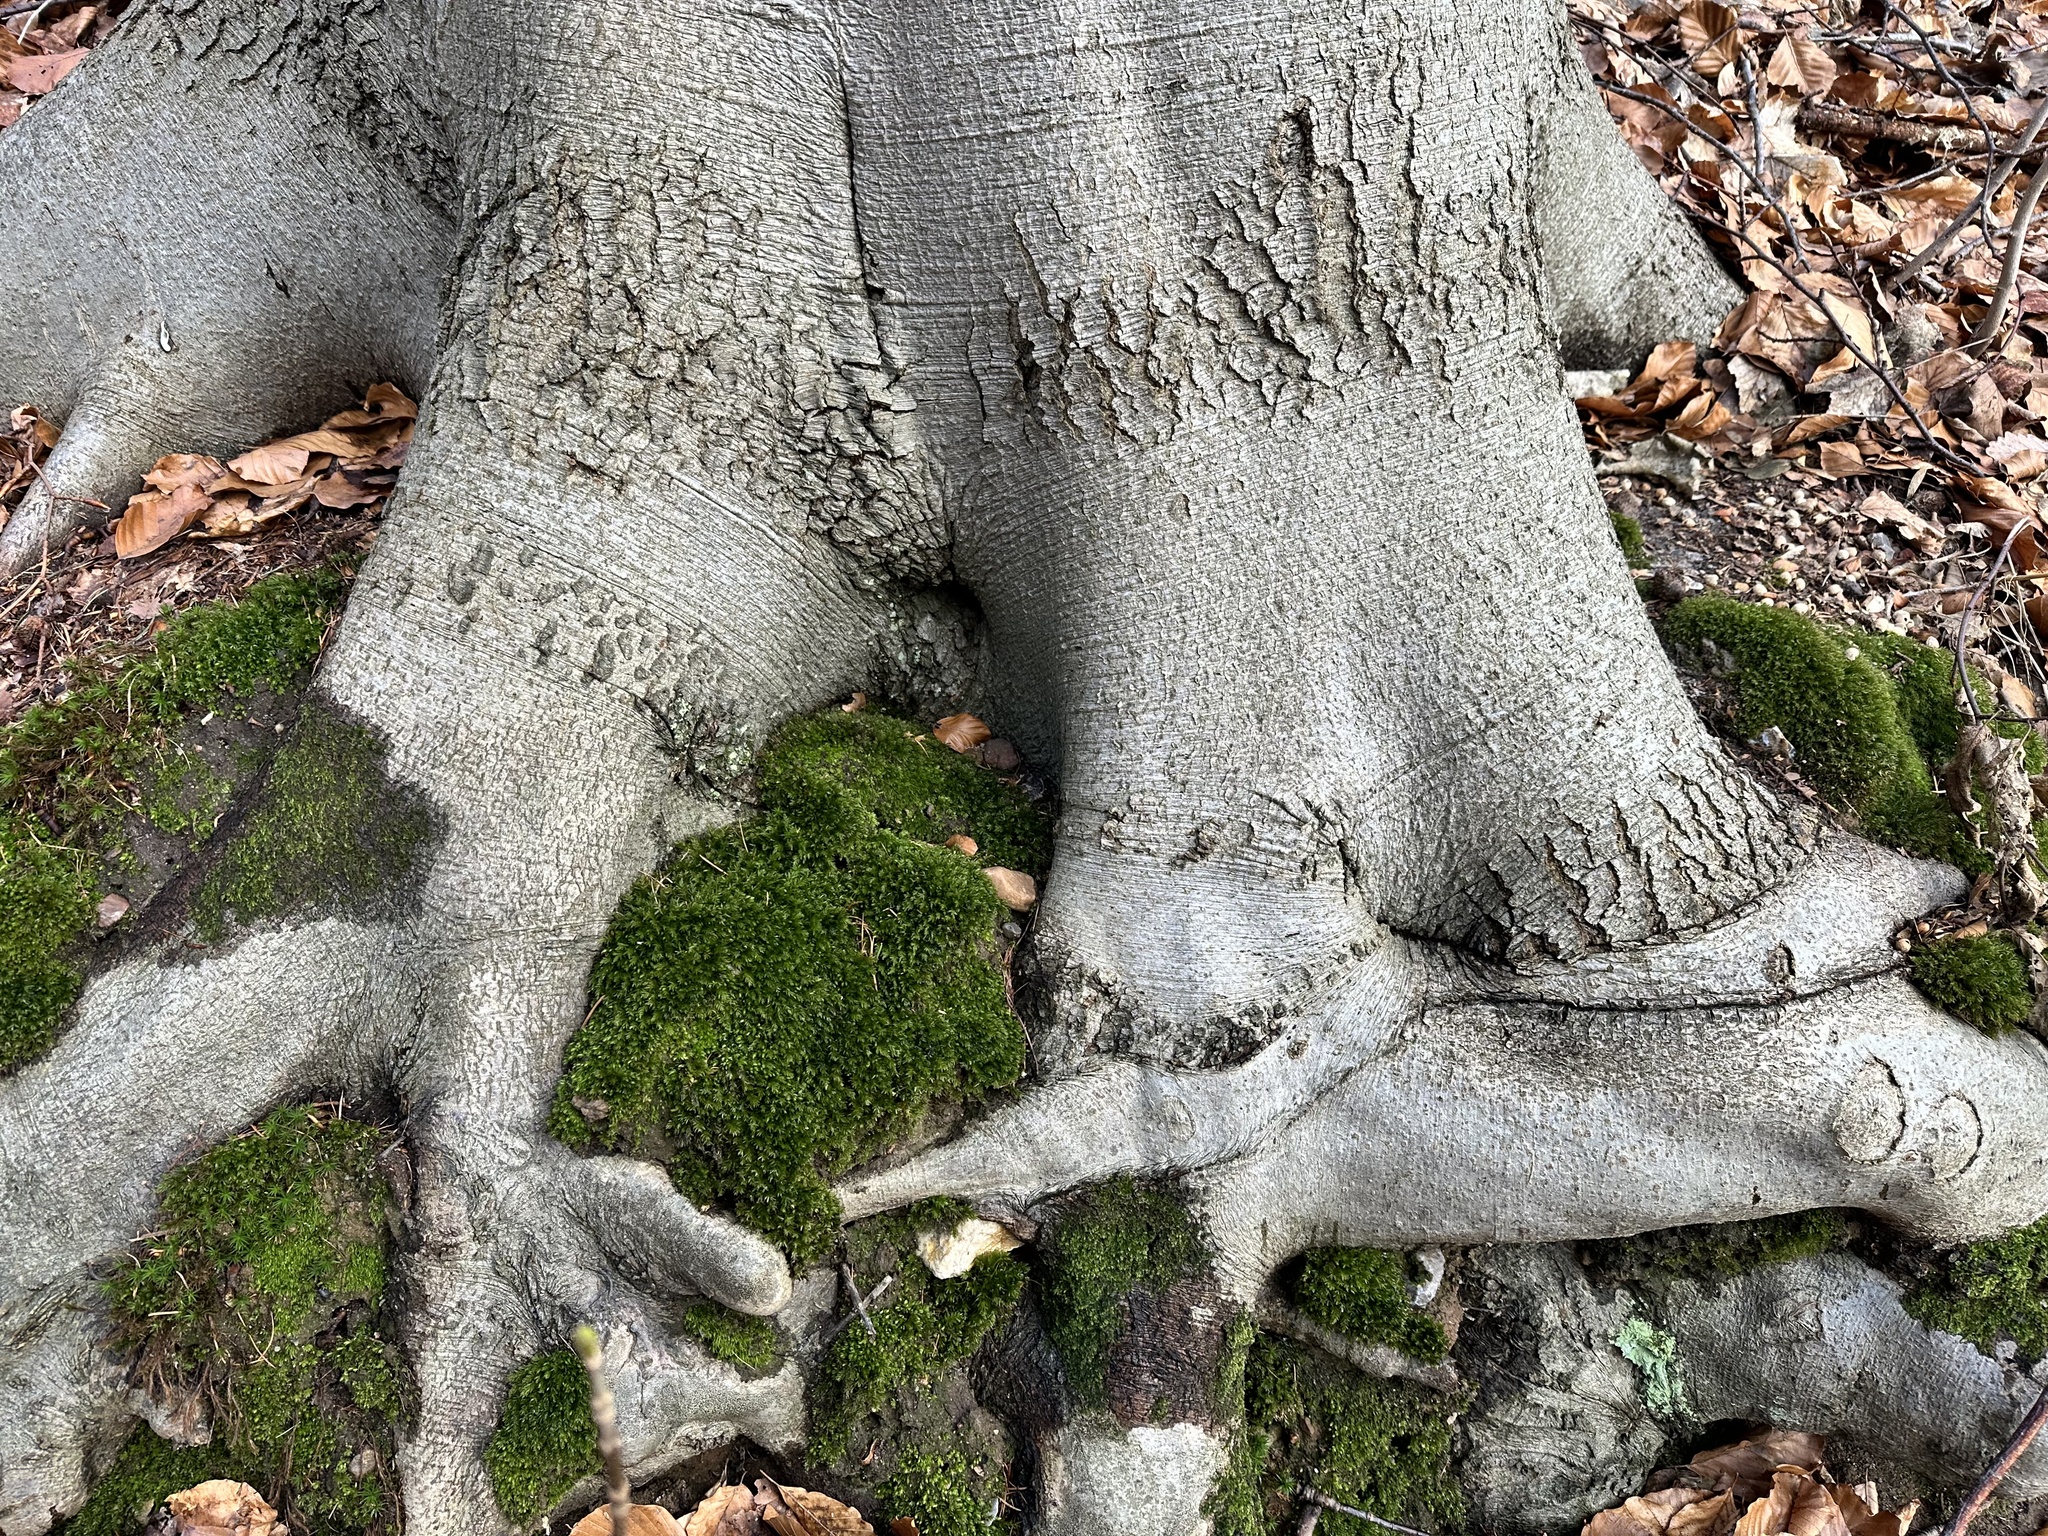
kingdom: Plantae
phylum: Tracheophyta
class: Magnoliopsida
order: Fagales
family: Fagaceae
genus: Fagus
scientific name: Fagus sylvatica
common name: Beech
